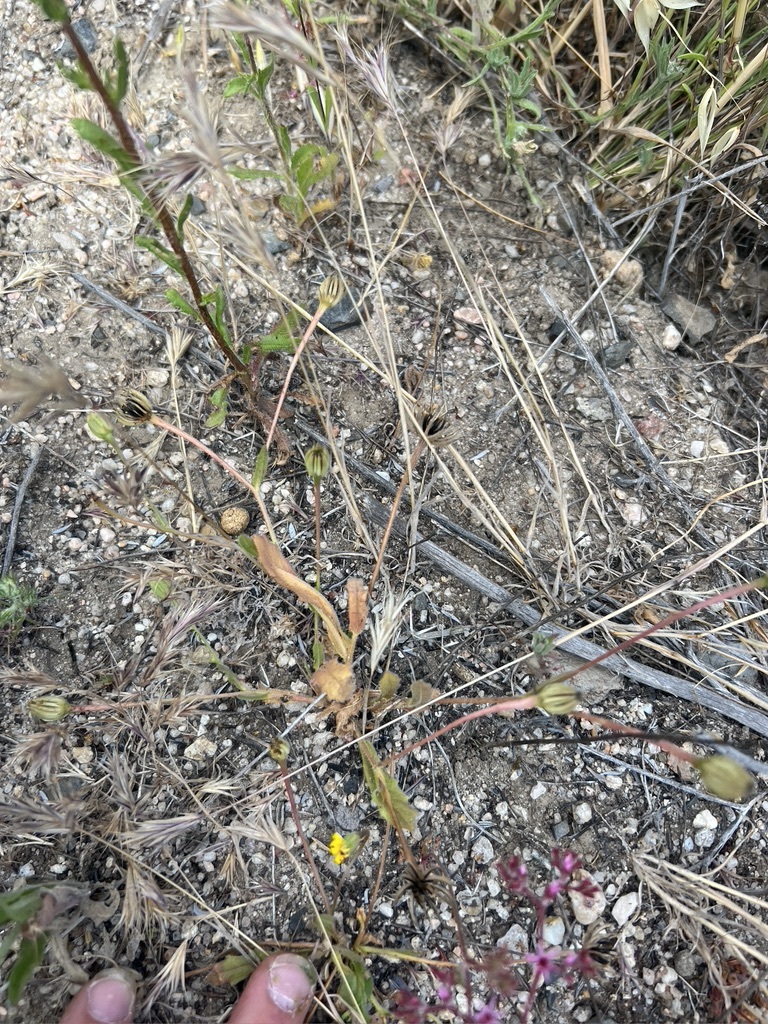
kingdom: Plantae
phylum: Tracheophyta
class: Magnoliopsida
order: Asterales
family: Asteraceae
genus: Hedypnois
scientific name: Hedypnois rhagadioloides
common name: Cretan weed
